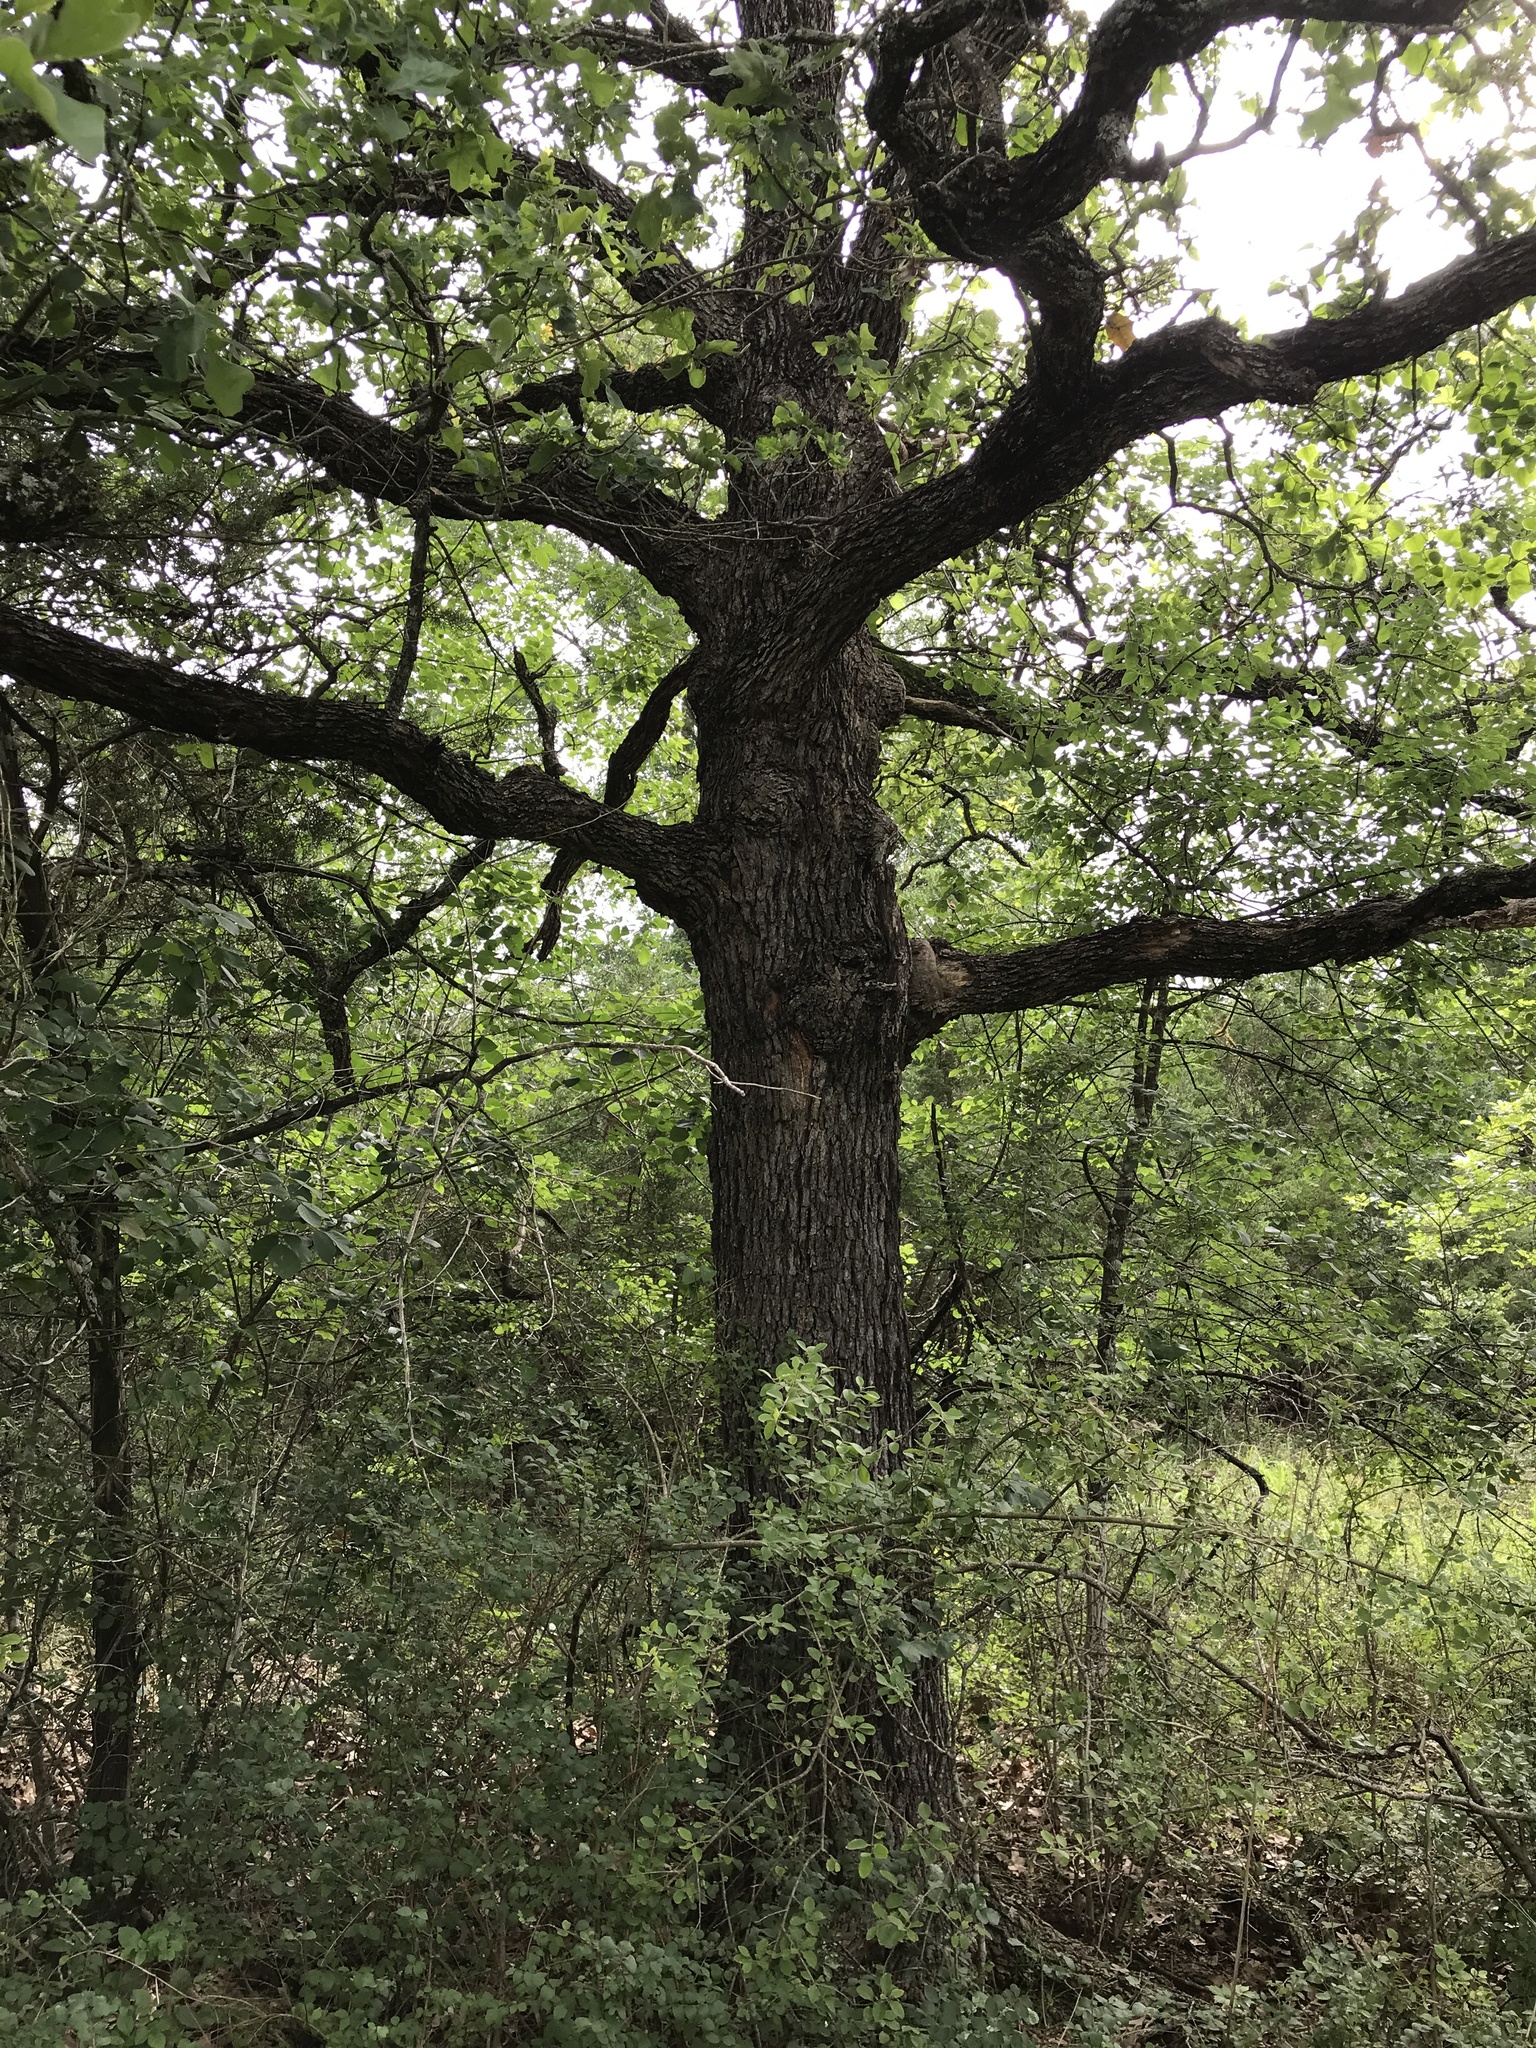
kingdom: Plantae
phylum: Tracheophyta
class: Magnoliopsida
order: Fagales
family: Fagaceae
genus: Quercus
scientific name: Quercus stellata
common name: Post oak
